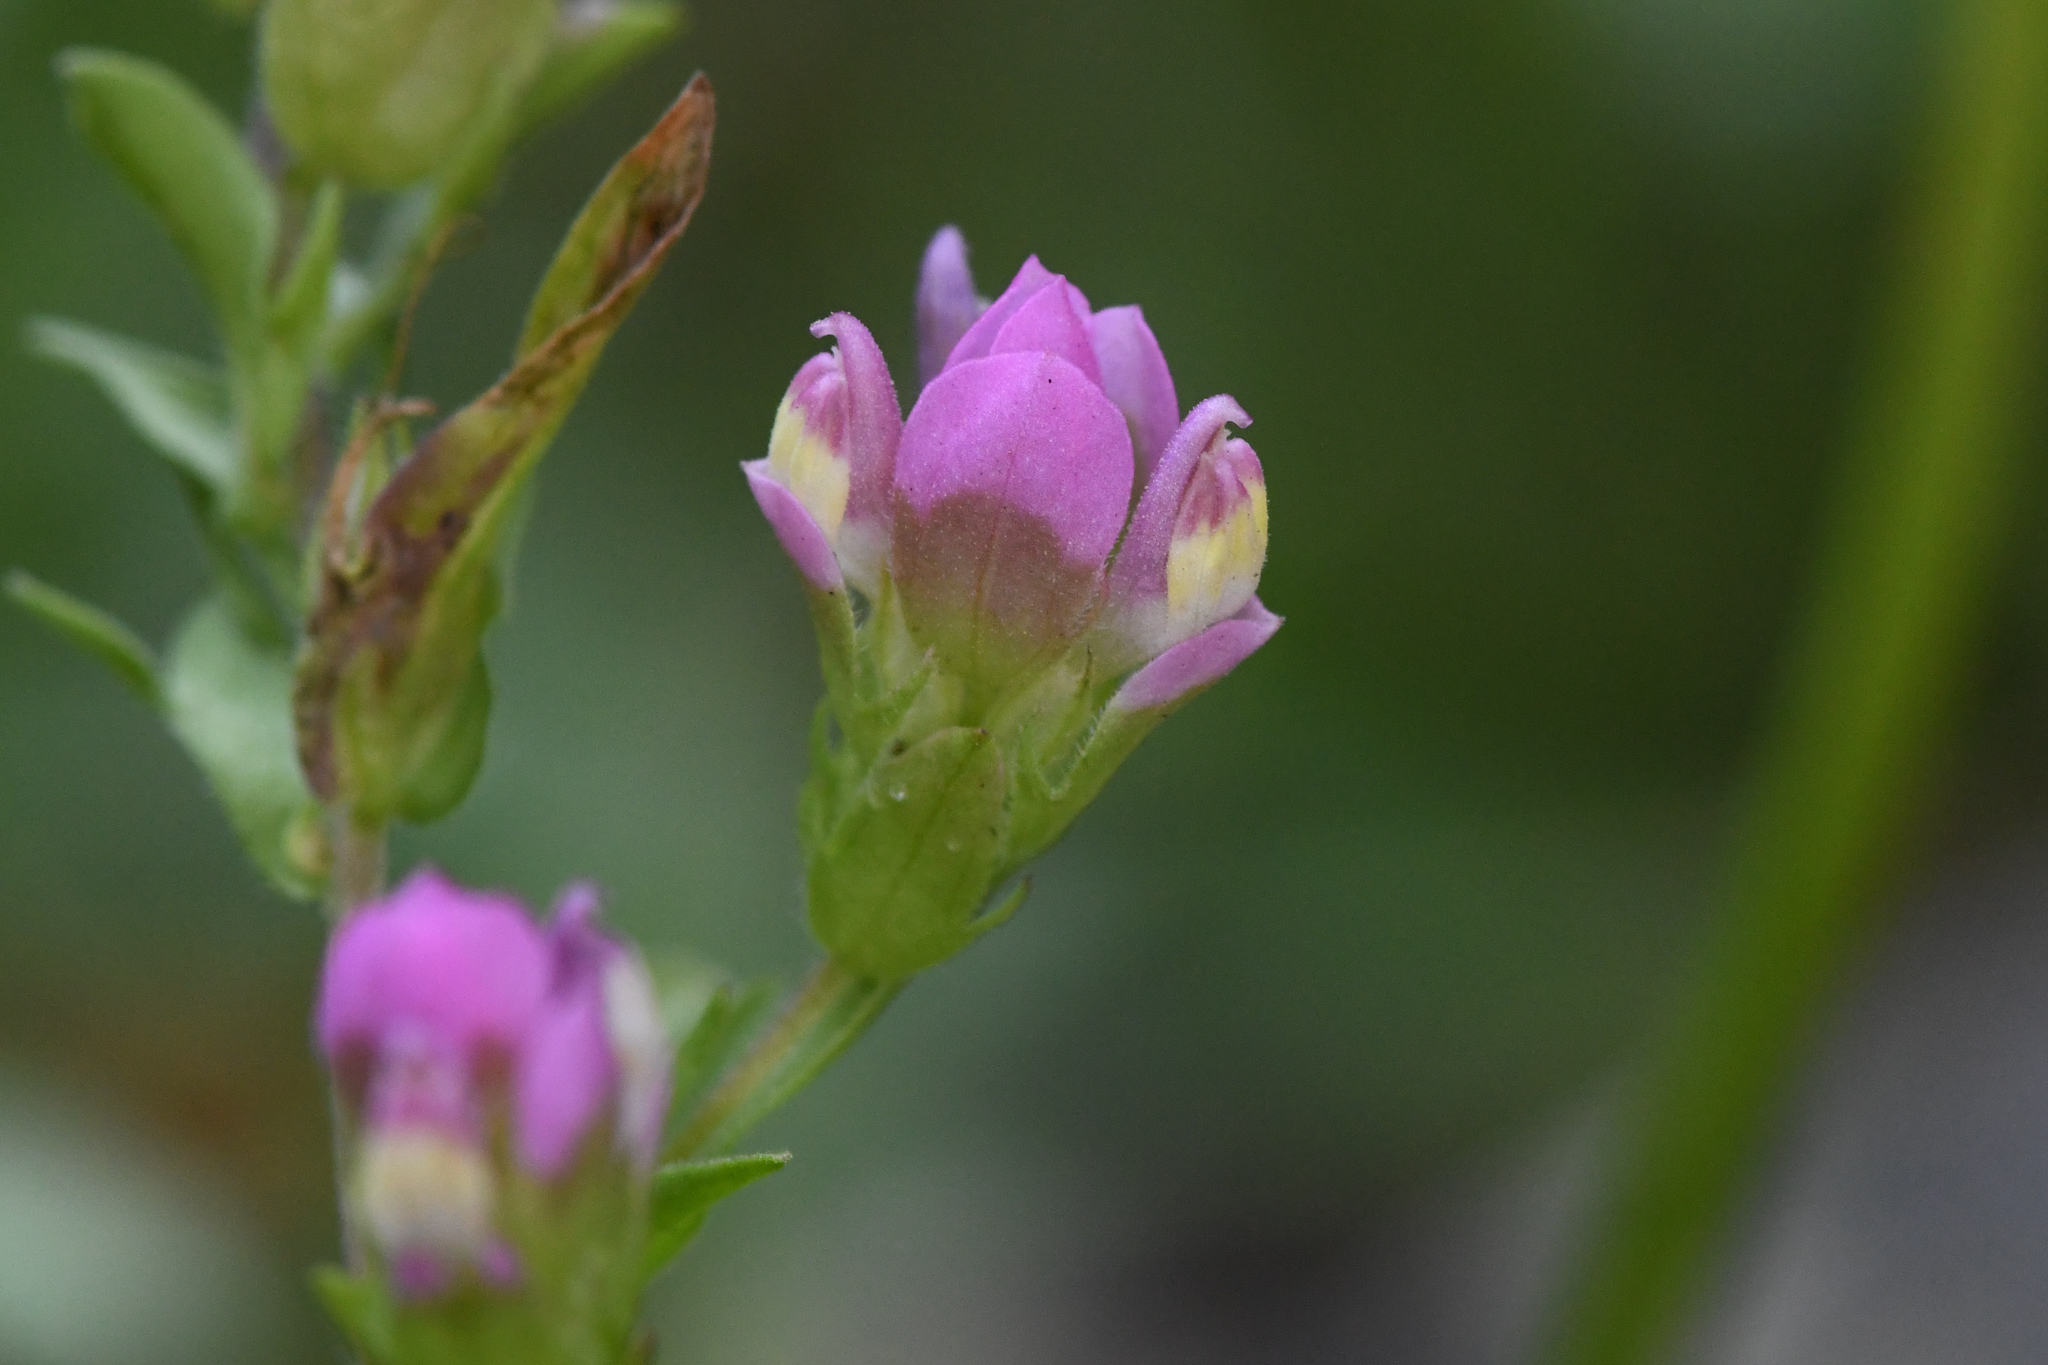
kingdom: Plantae
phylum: Tracheophyta
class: Magnoliopsida
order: Lamiales
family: Orobanchaceae
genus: Orthocarpus
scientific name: Orthocarpus imbricatus
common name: Mountain owl's-clover
